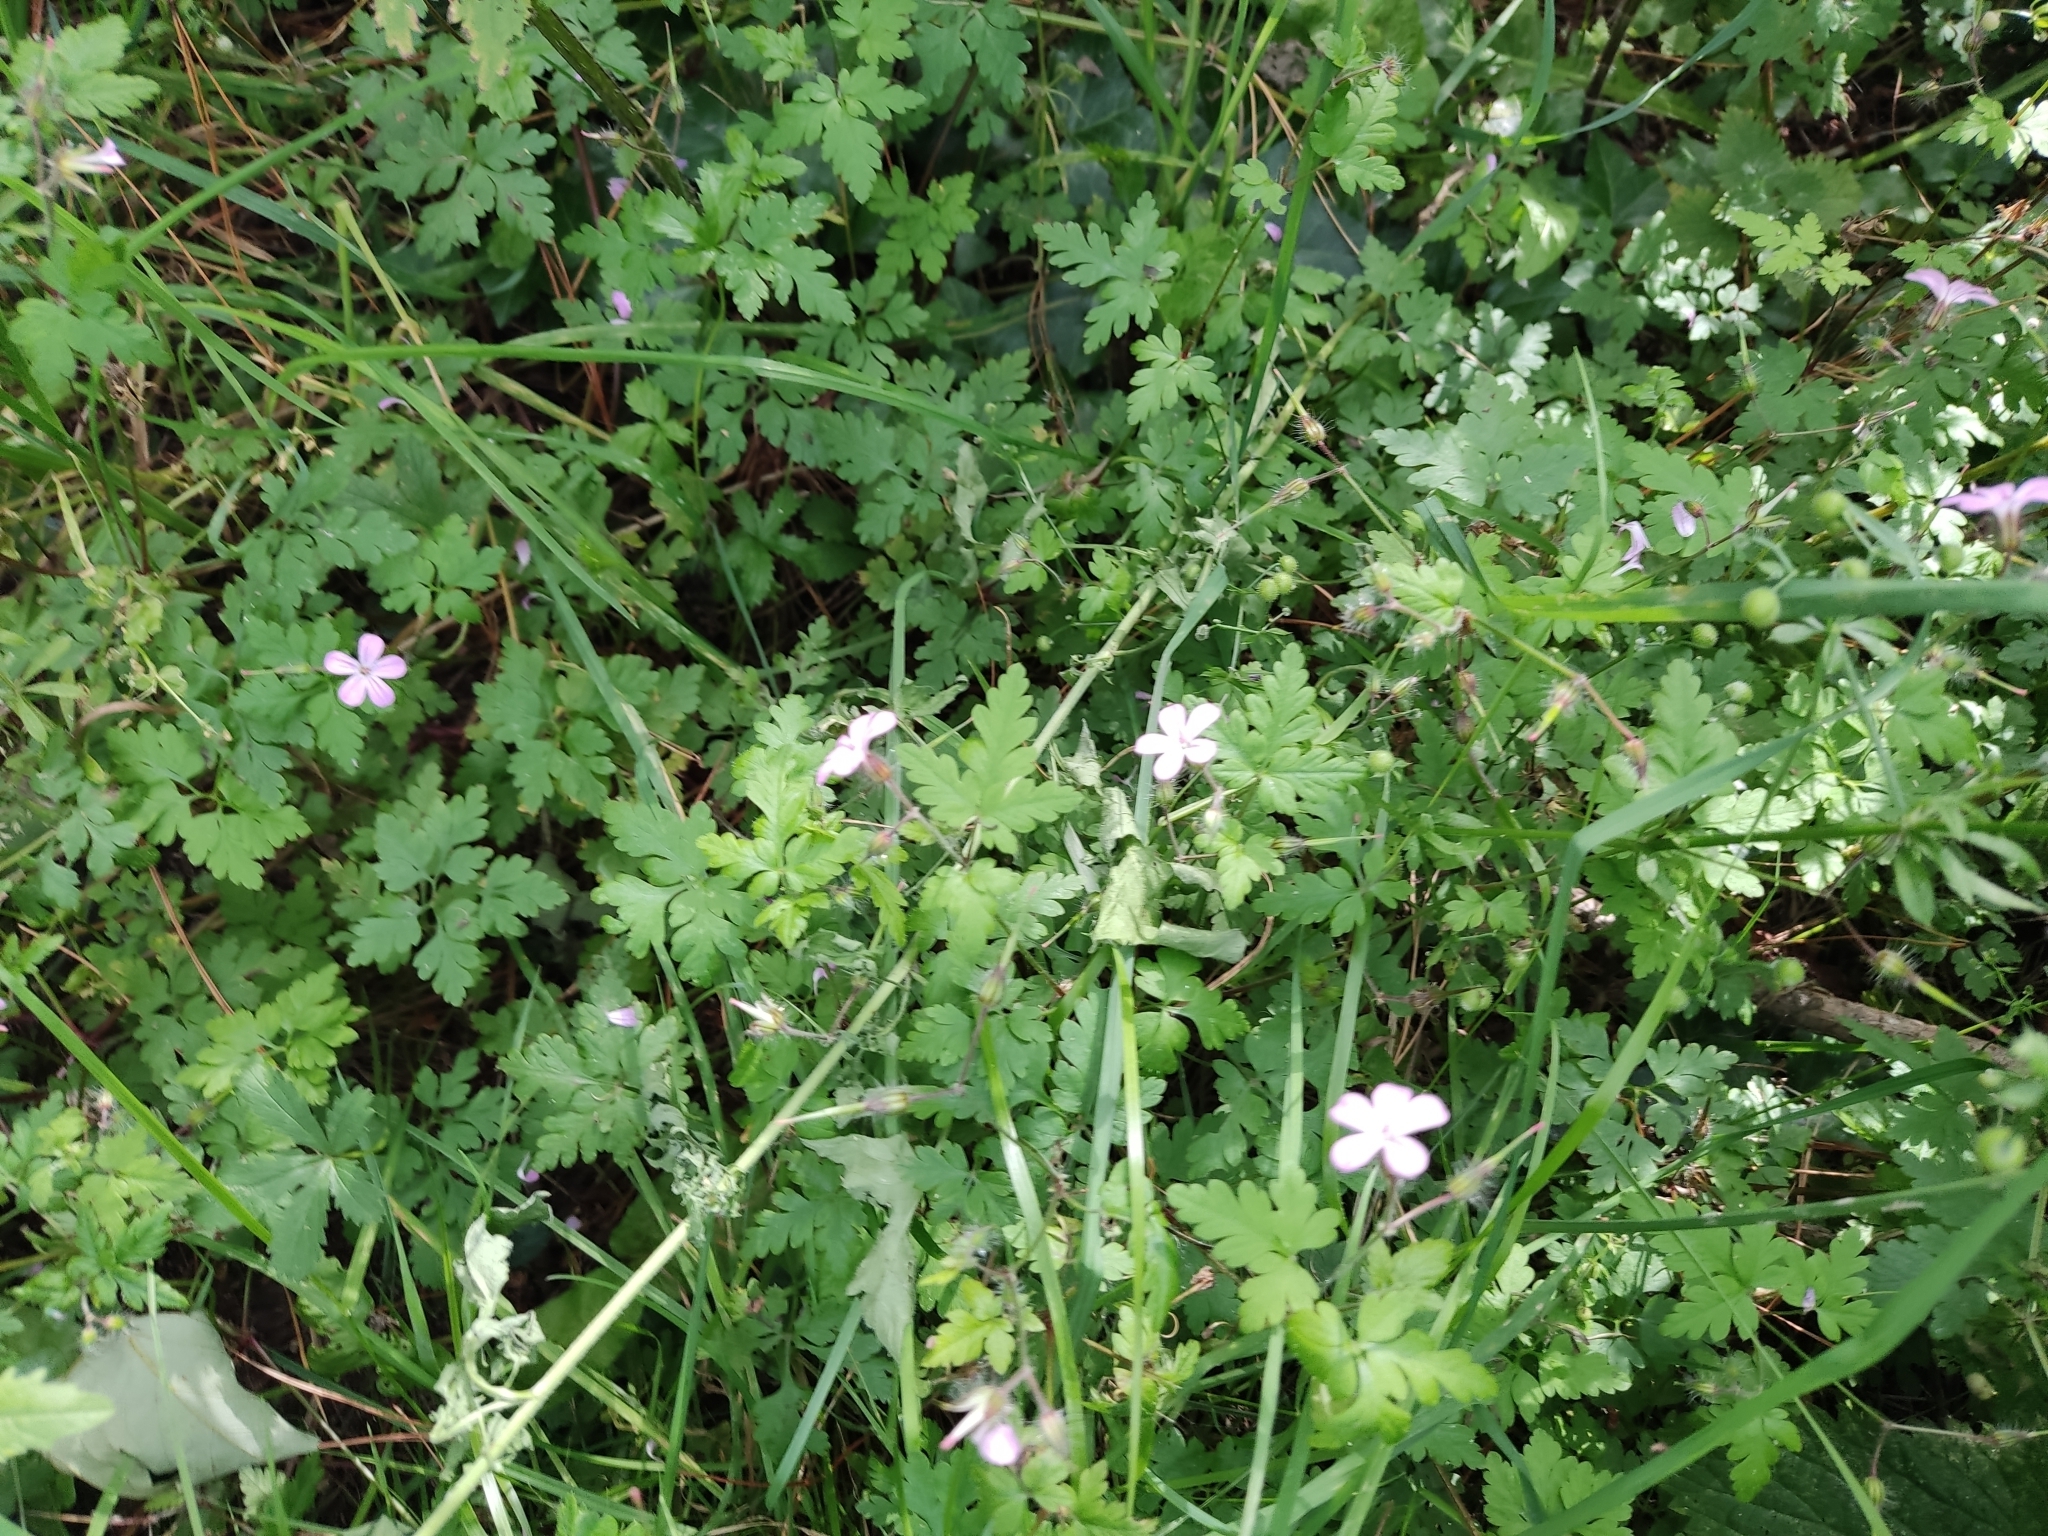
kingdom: Plantae
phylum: Tracheophyta
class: Magnoliopsida
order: Geraniales
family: Geraniaceae
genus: Geranium
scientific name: Geranium robertianum
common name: Herb-robert
